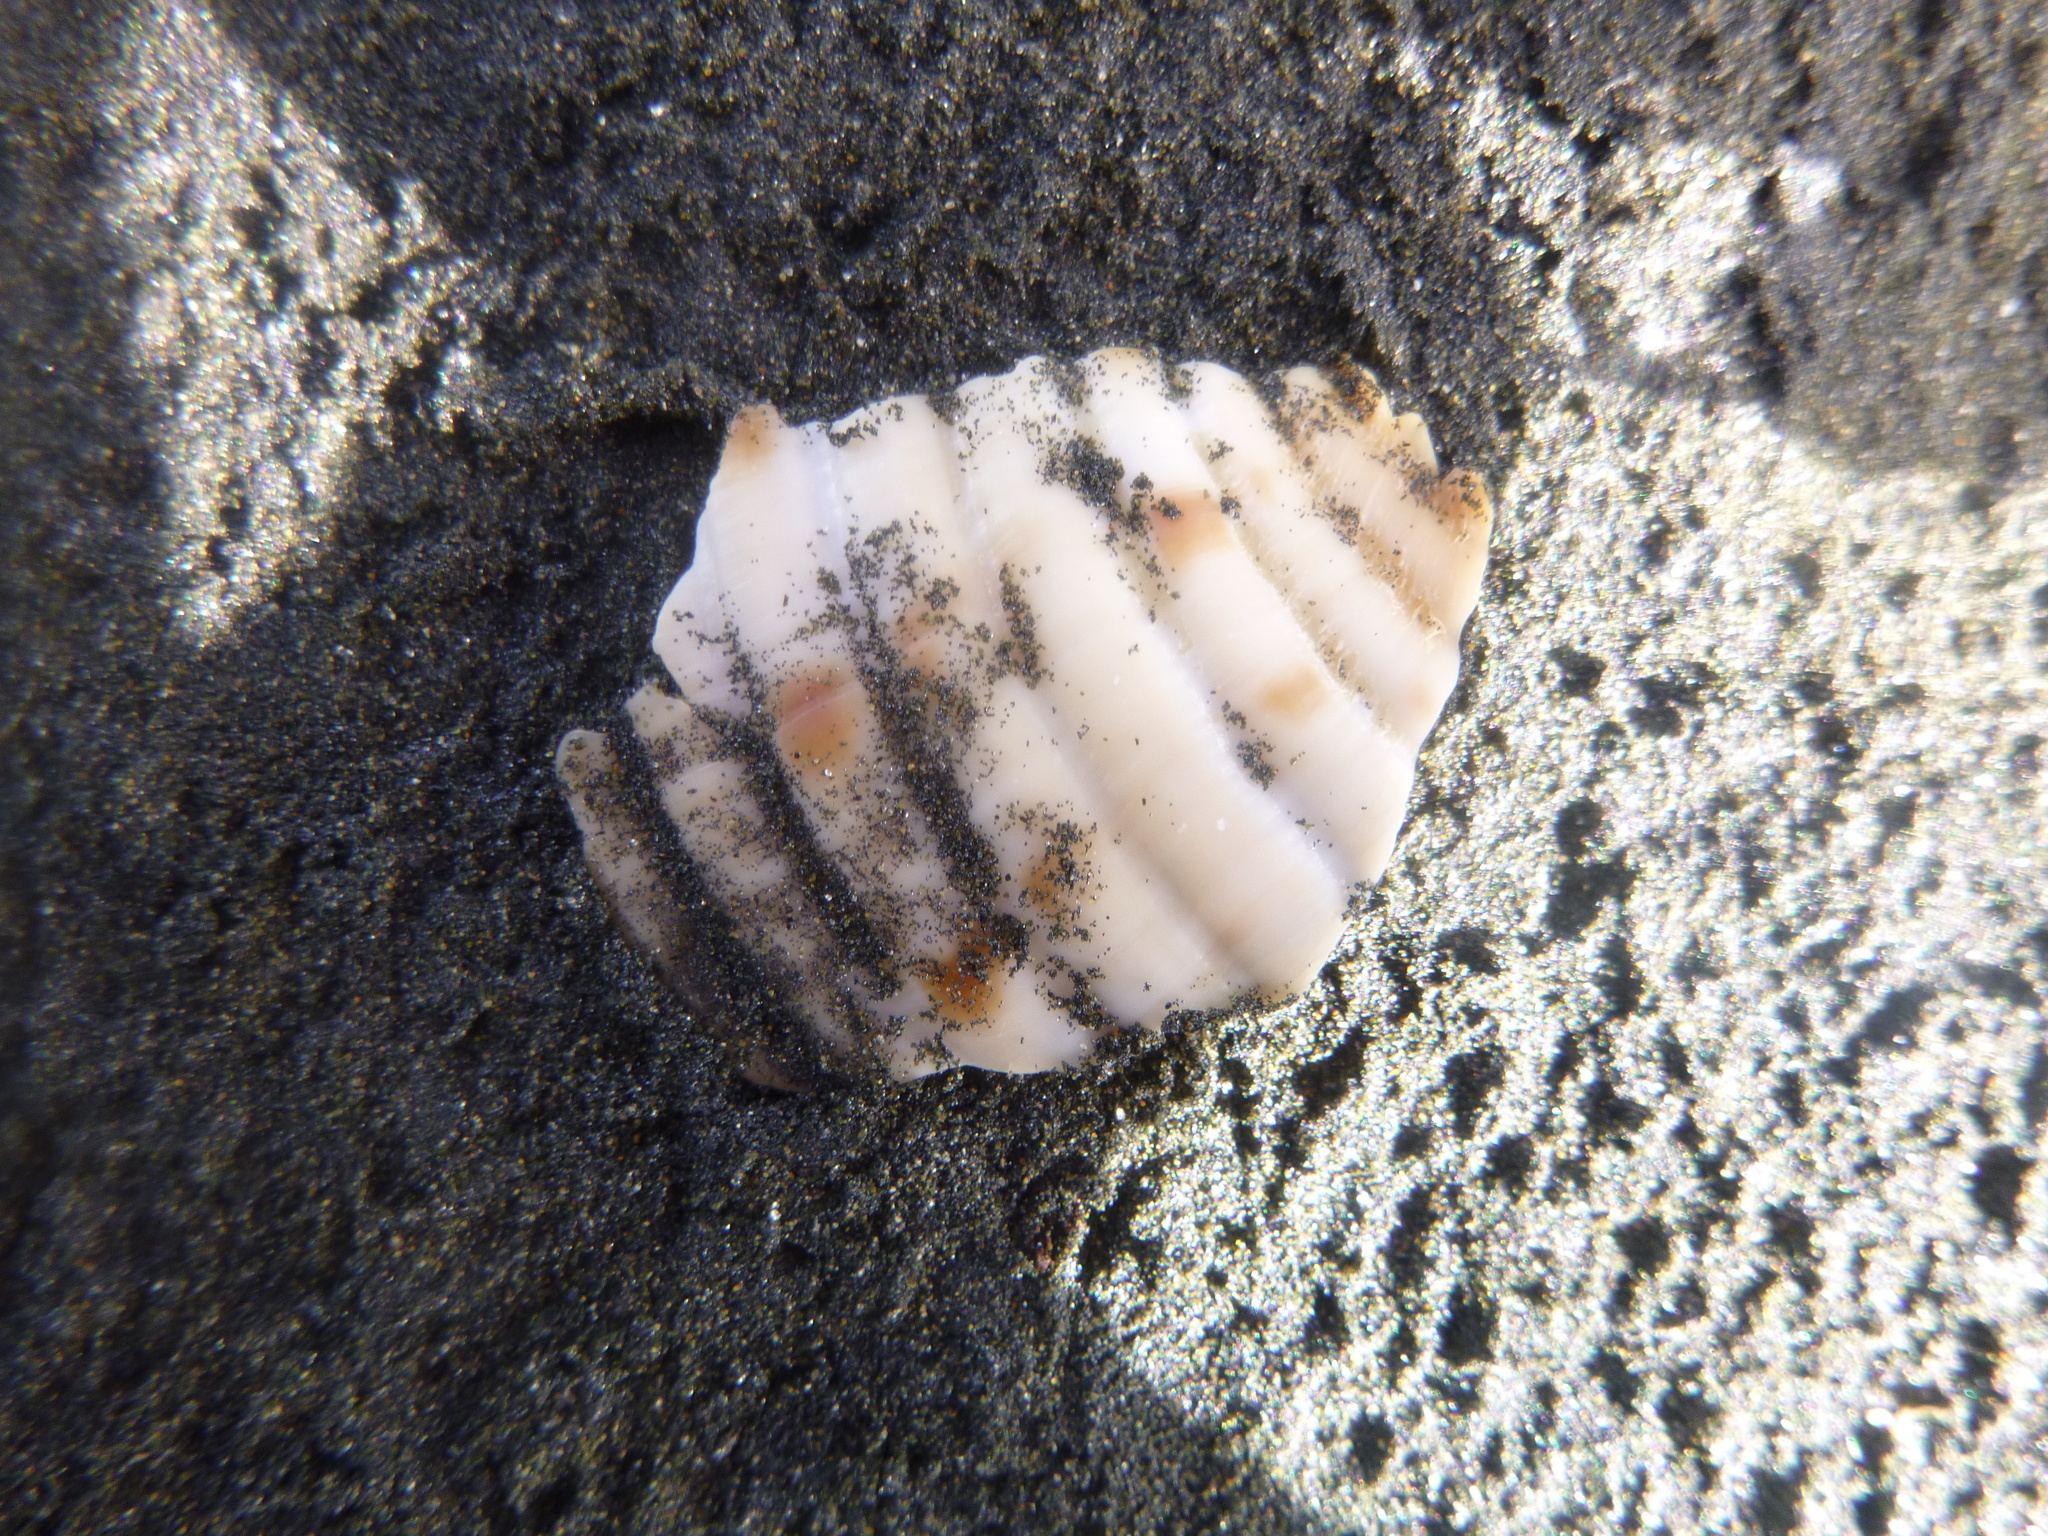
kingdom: Animalia
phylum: Mollusca
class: Gastropoda
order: Littorinimorpha
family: Tonnidae
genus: Tonna
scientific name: Tonna tankervillii
